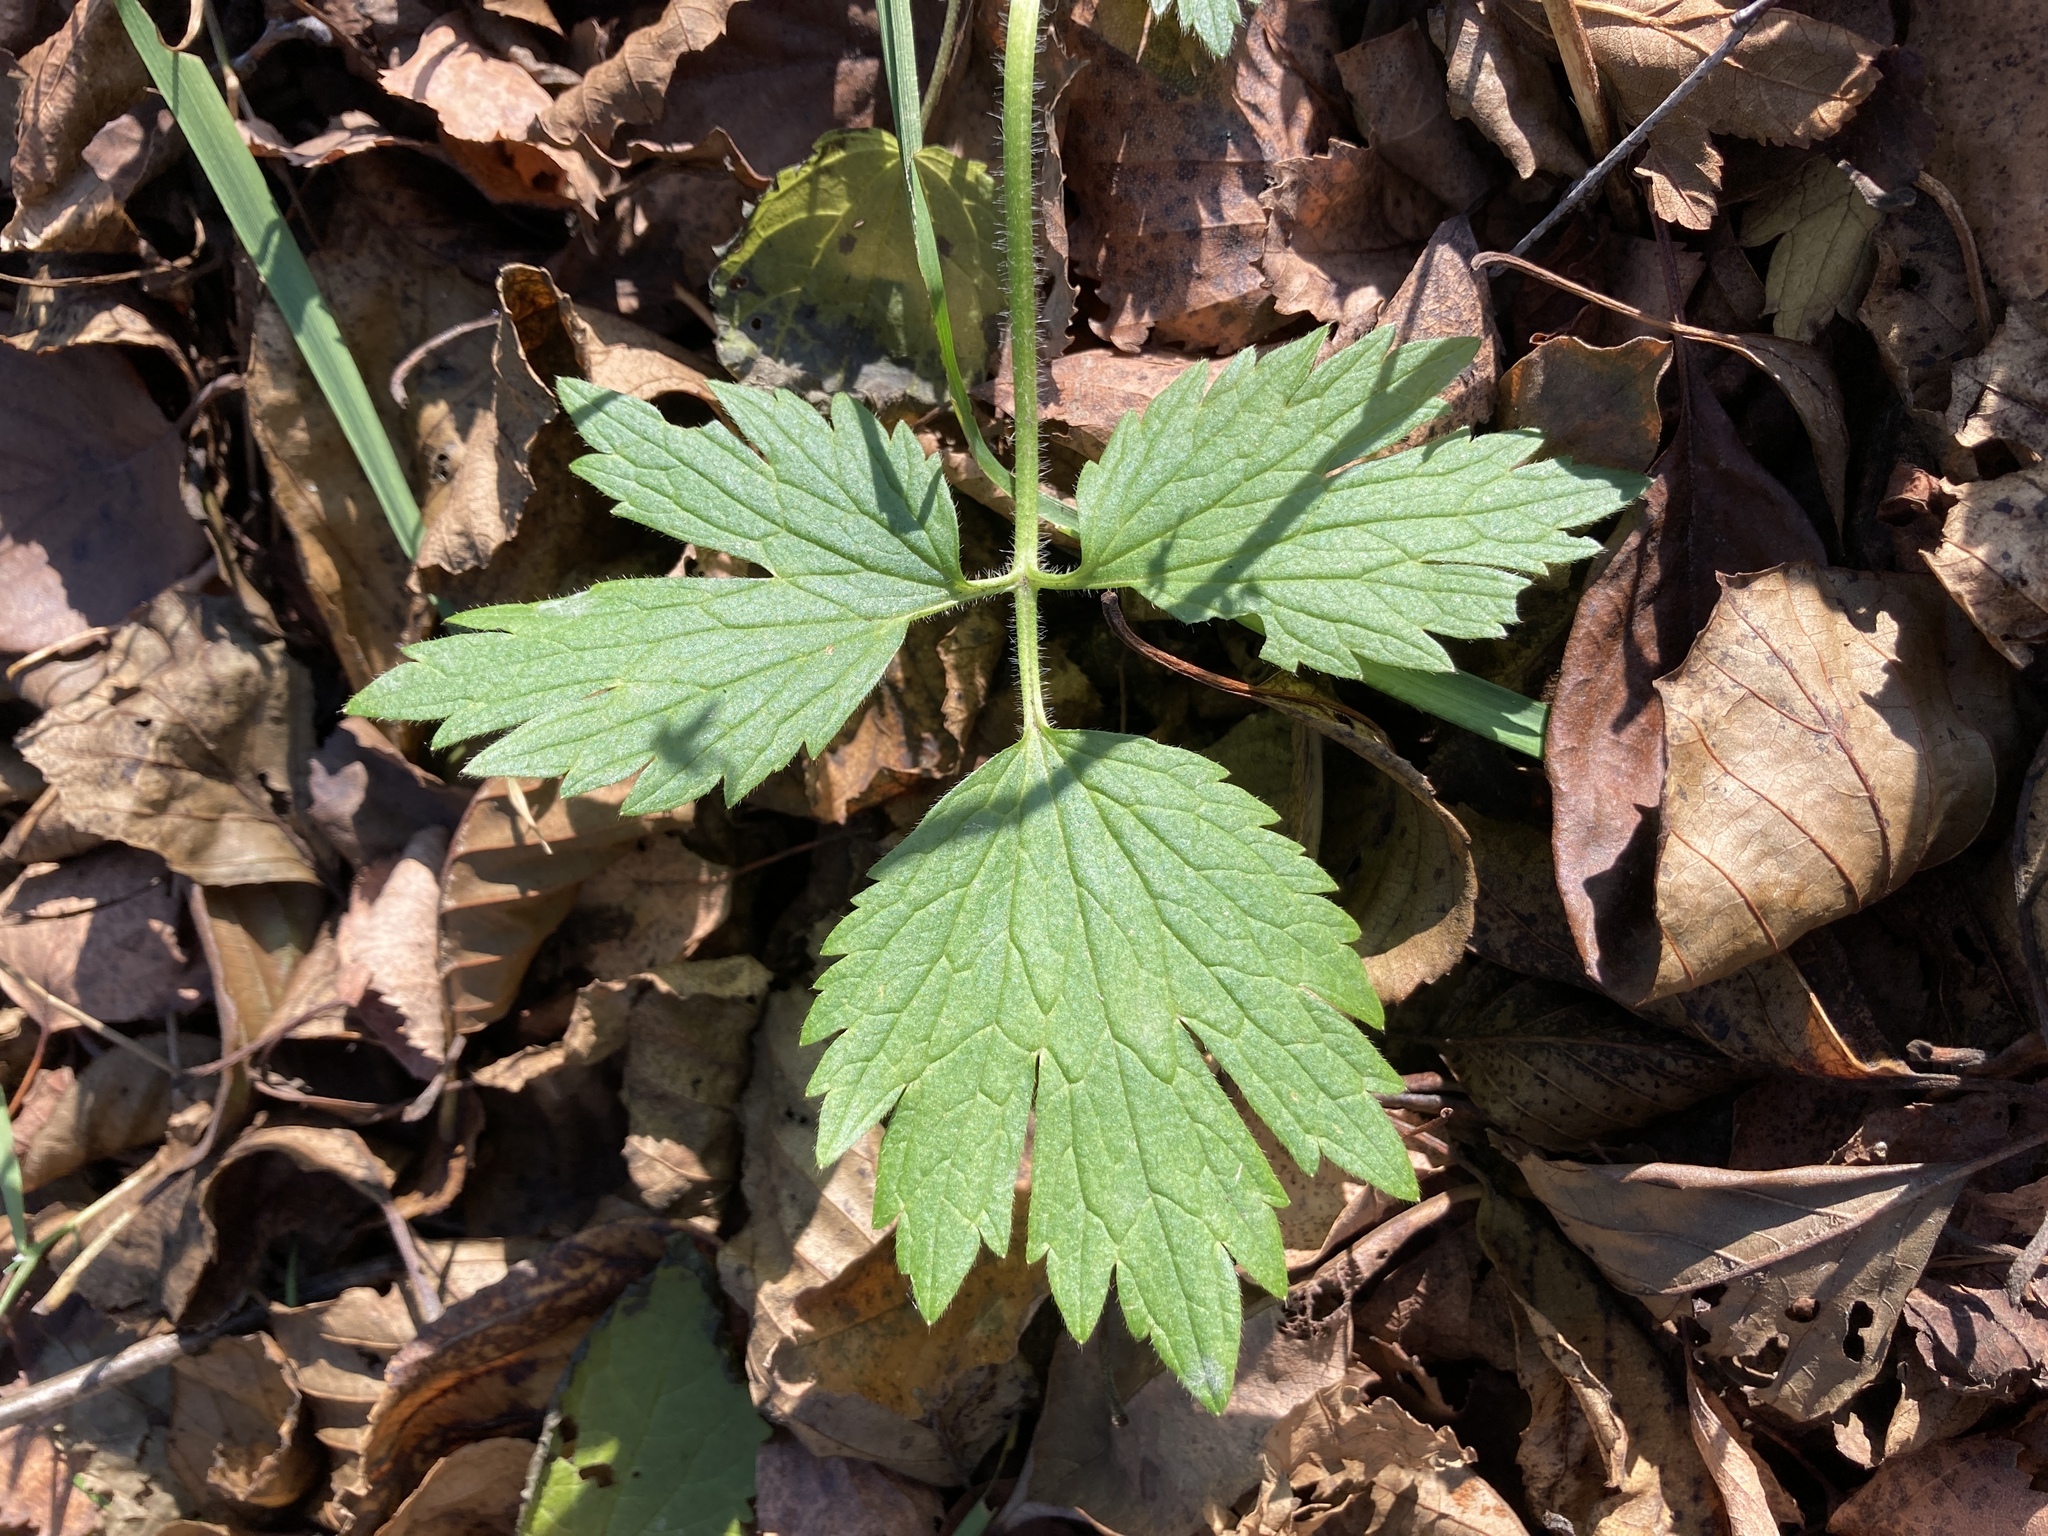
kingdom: Plantae
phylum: Tracheophyta
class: Magnoliopsida
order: Ranunculales
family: Ranunculaceae
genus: Ranunculus
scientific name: Ranunculus repens
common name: Creeping buttercup
